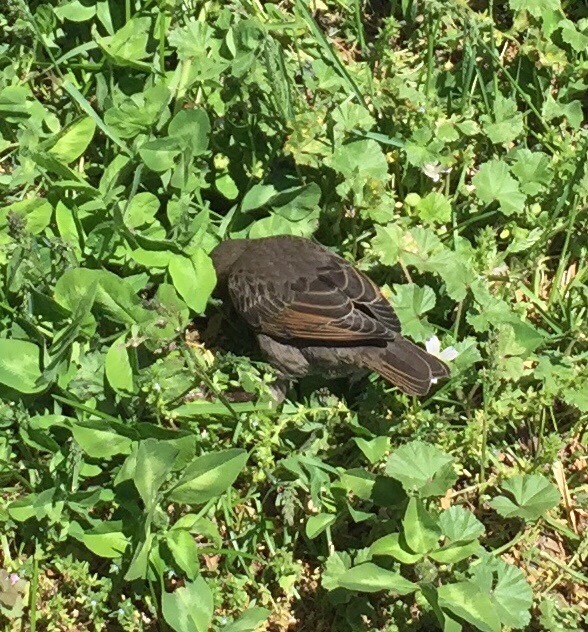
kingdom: Animalia
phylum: Chordata
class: Aves
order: Passeriformes
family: Sturnidae
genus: Sturnus
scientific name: Sturnus vulgaris
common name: Common starling
